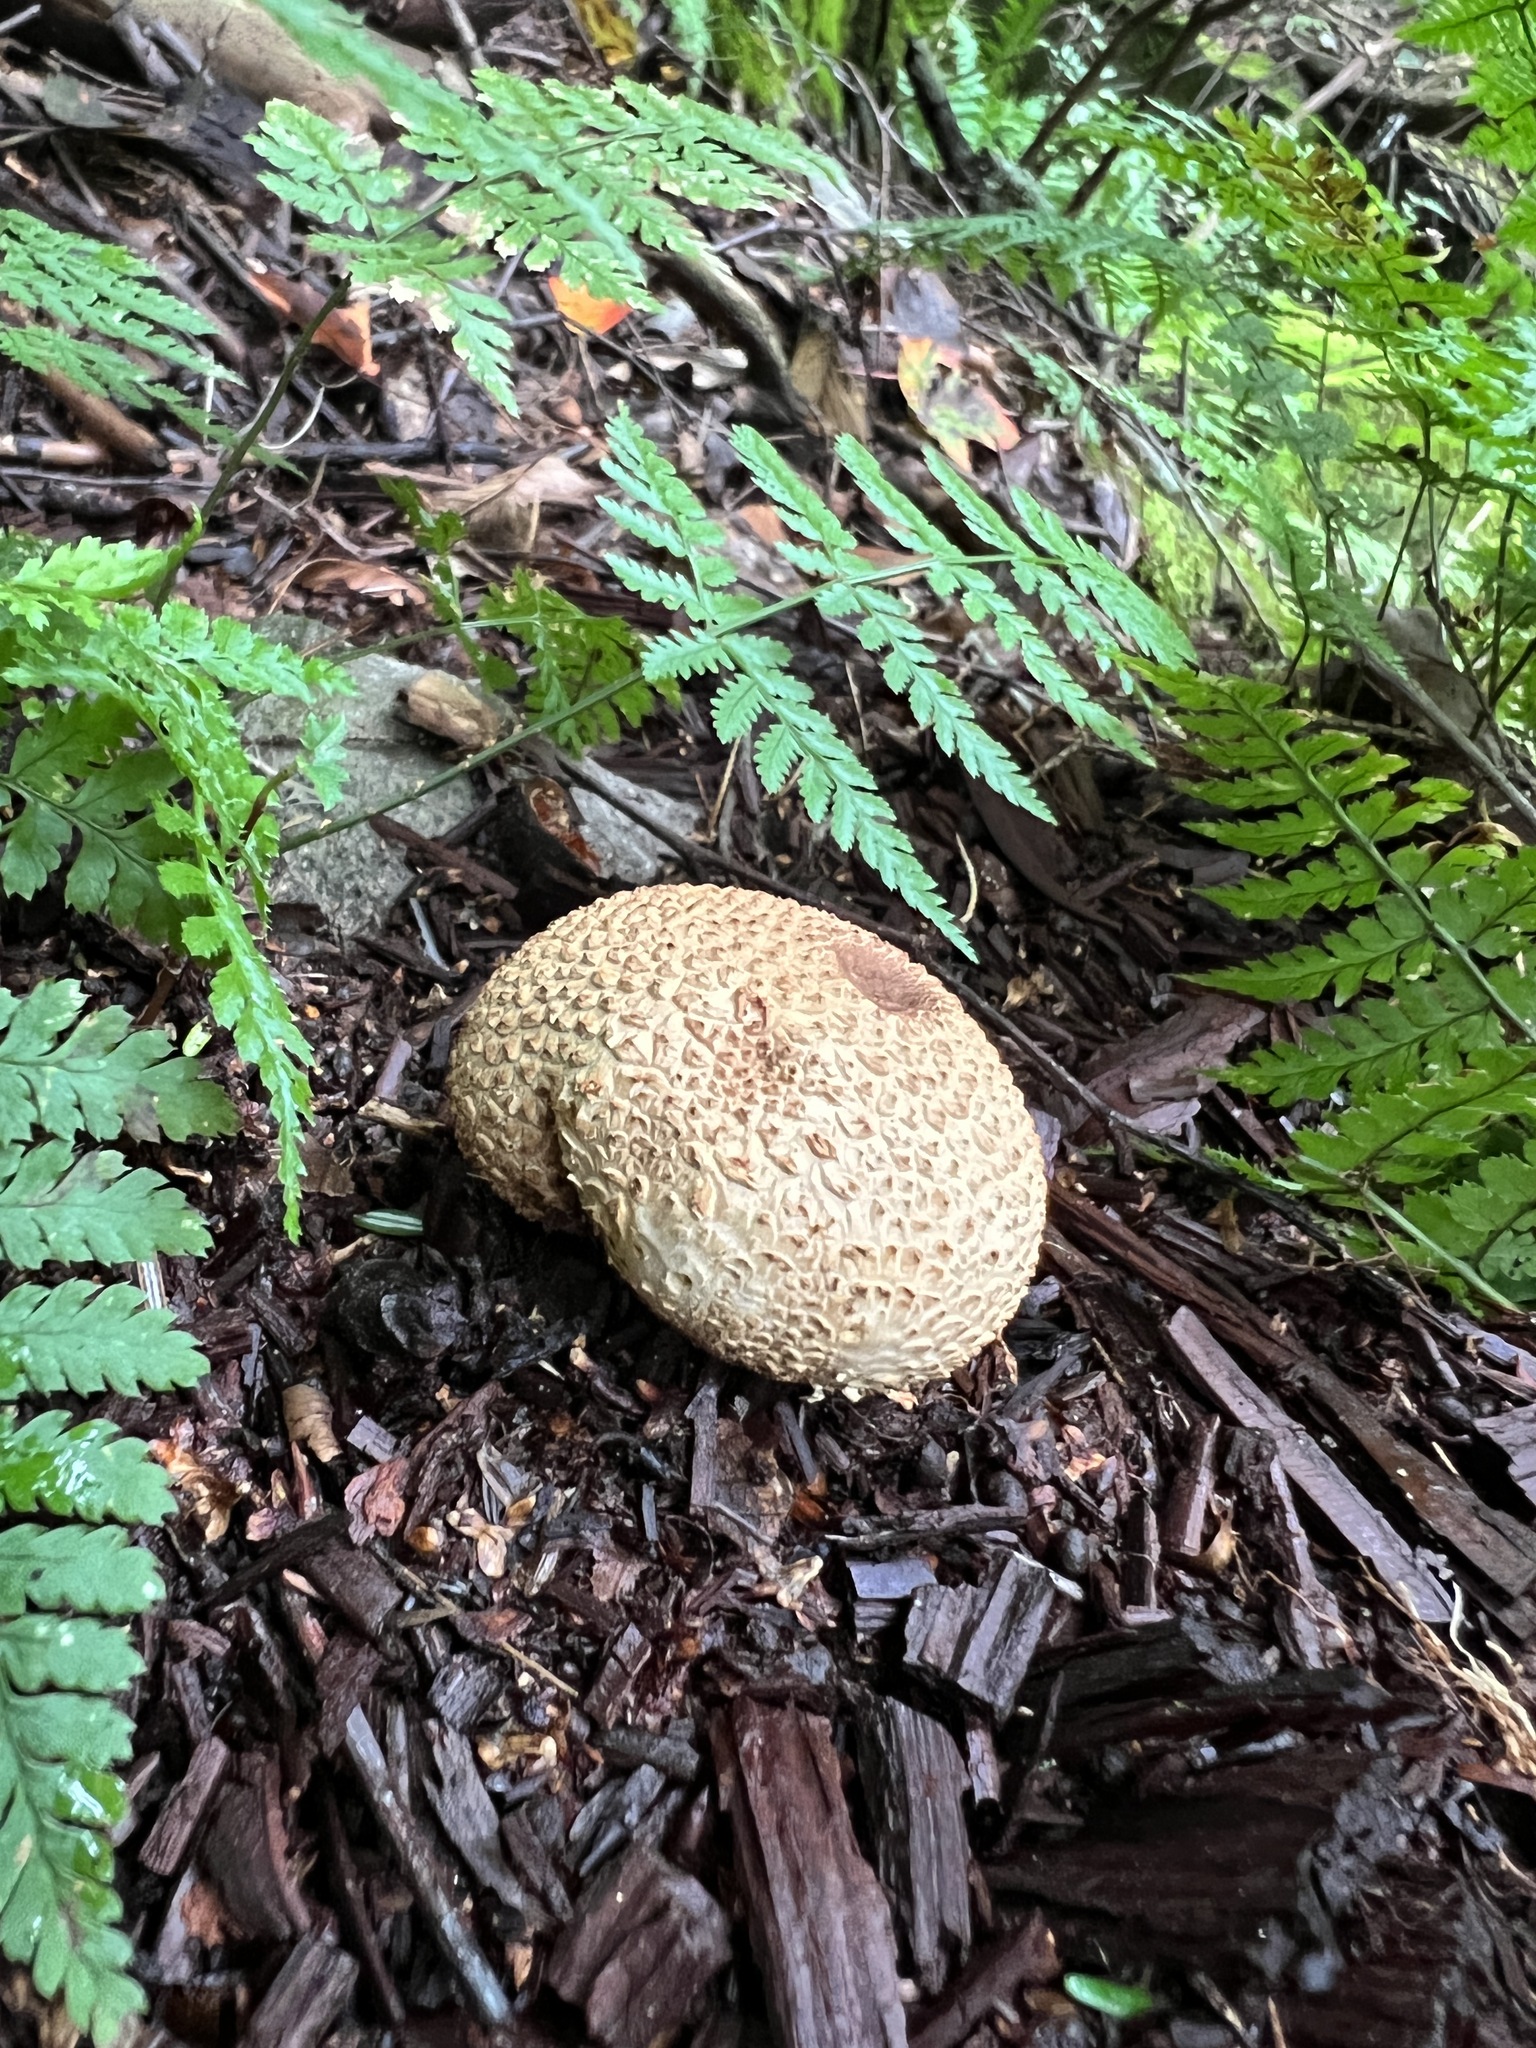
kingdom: Fungi
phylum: Basidiomycota
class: Agaricomycetes
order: Boletales
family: Sclerodermataceae
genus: Scleroderma
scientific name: Scleroderma citrinum
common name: Common earthball
